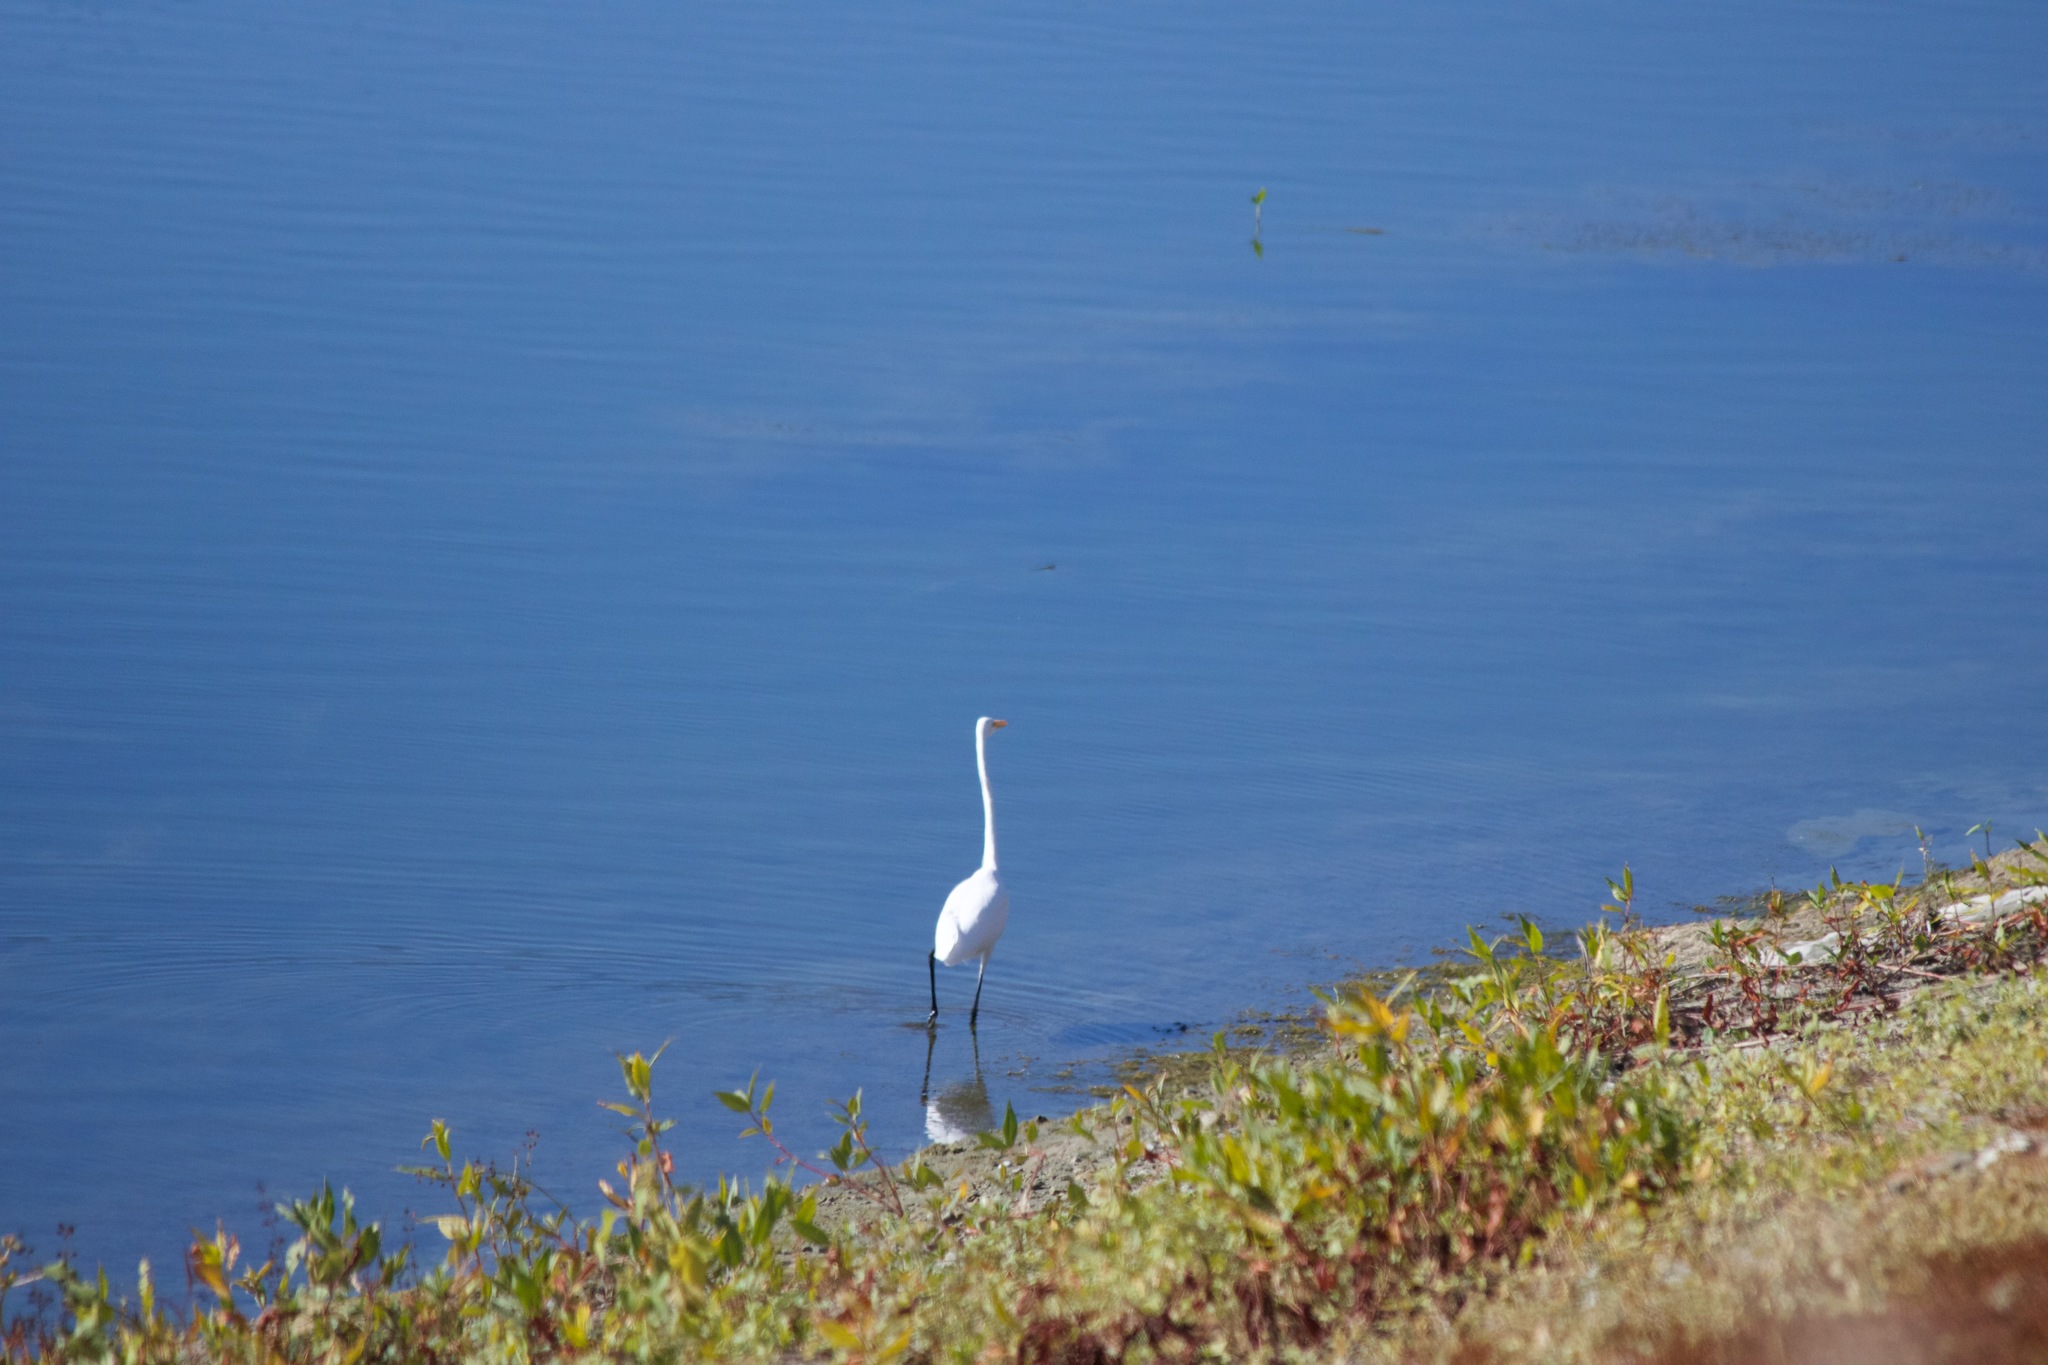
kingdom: Animalia
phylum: Chordata
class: Aves
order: Pelecaniformes
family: Ardeidae
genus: Ardea
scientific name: Ardea alba
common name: Great egret
